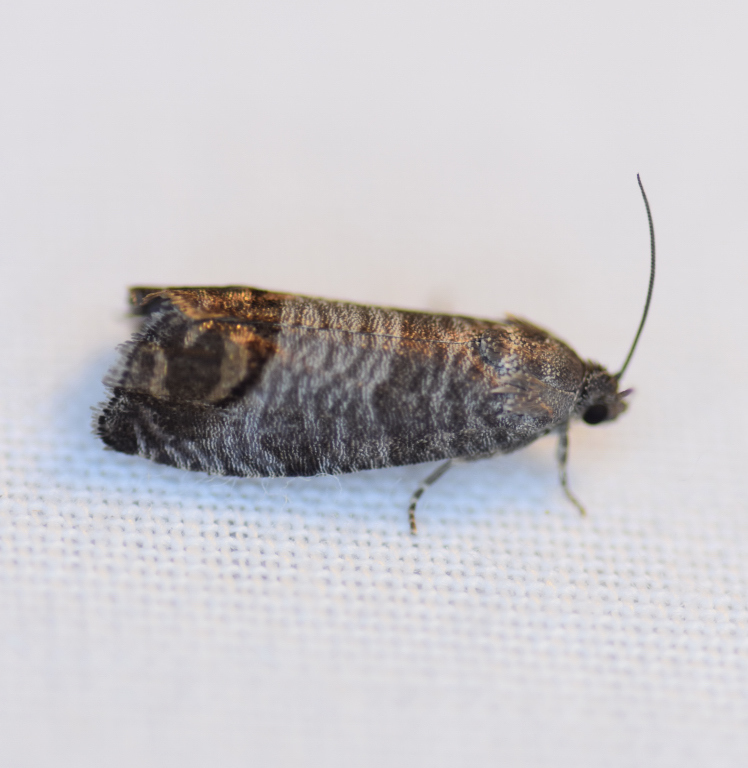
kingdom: Animalia
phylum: Arthropoda
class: Insecta
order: Lepidoptera
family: Tortricidae
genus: Cydia
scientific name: Cydia pomonella
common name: Codling moth
